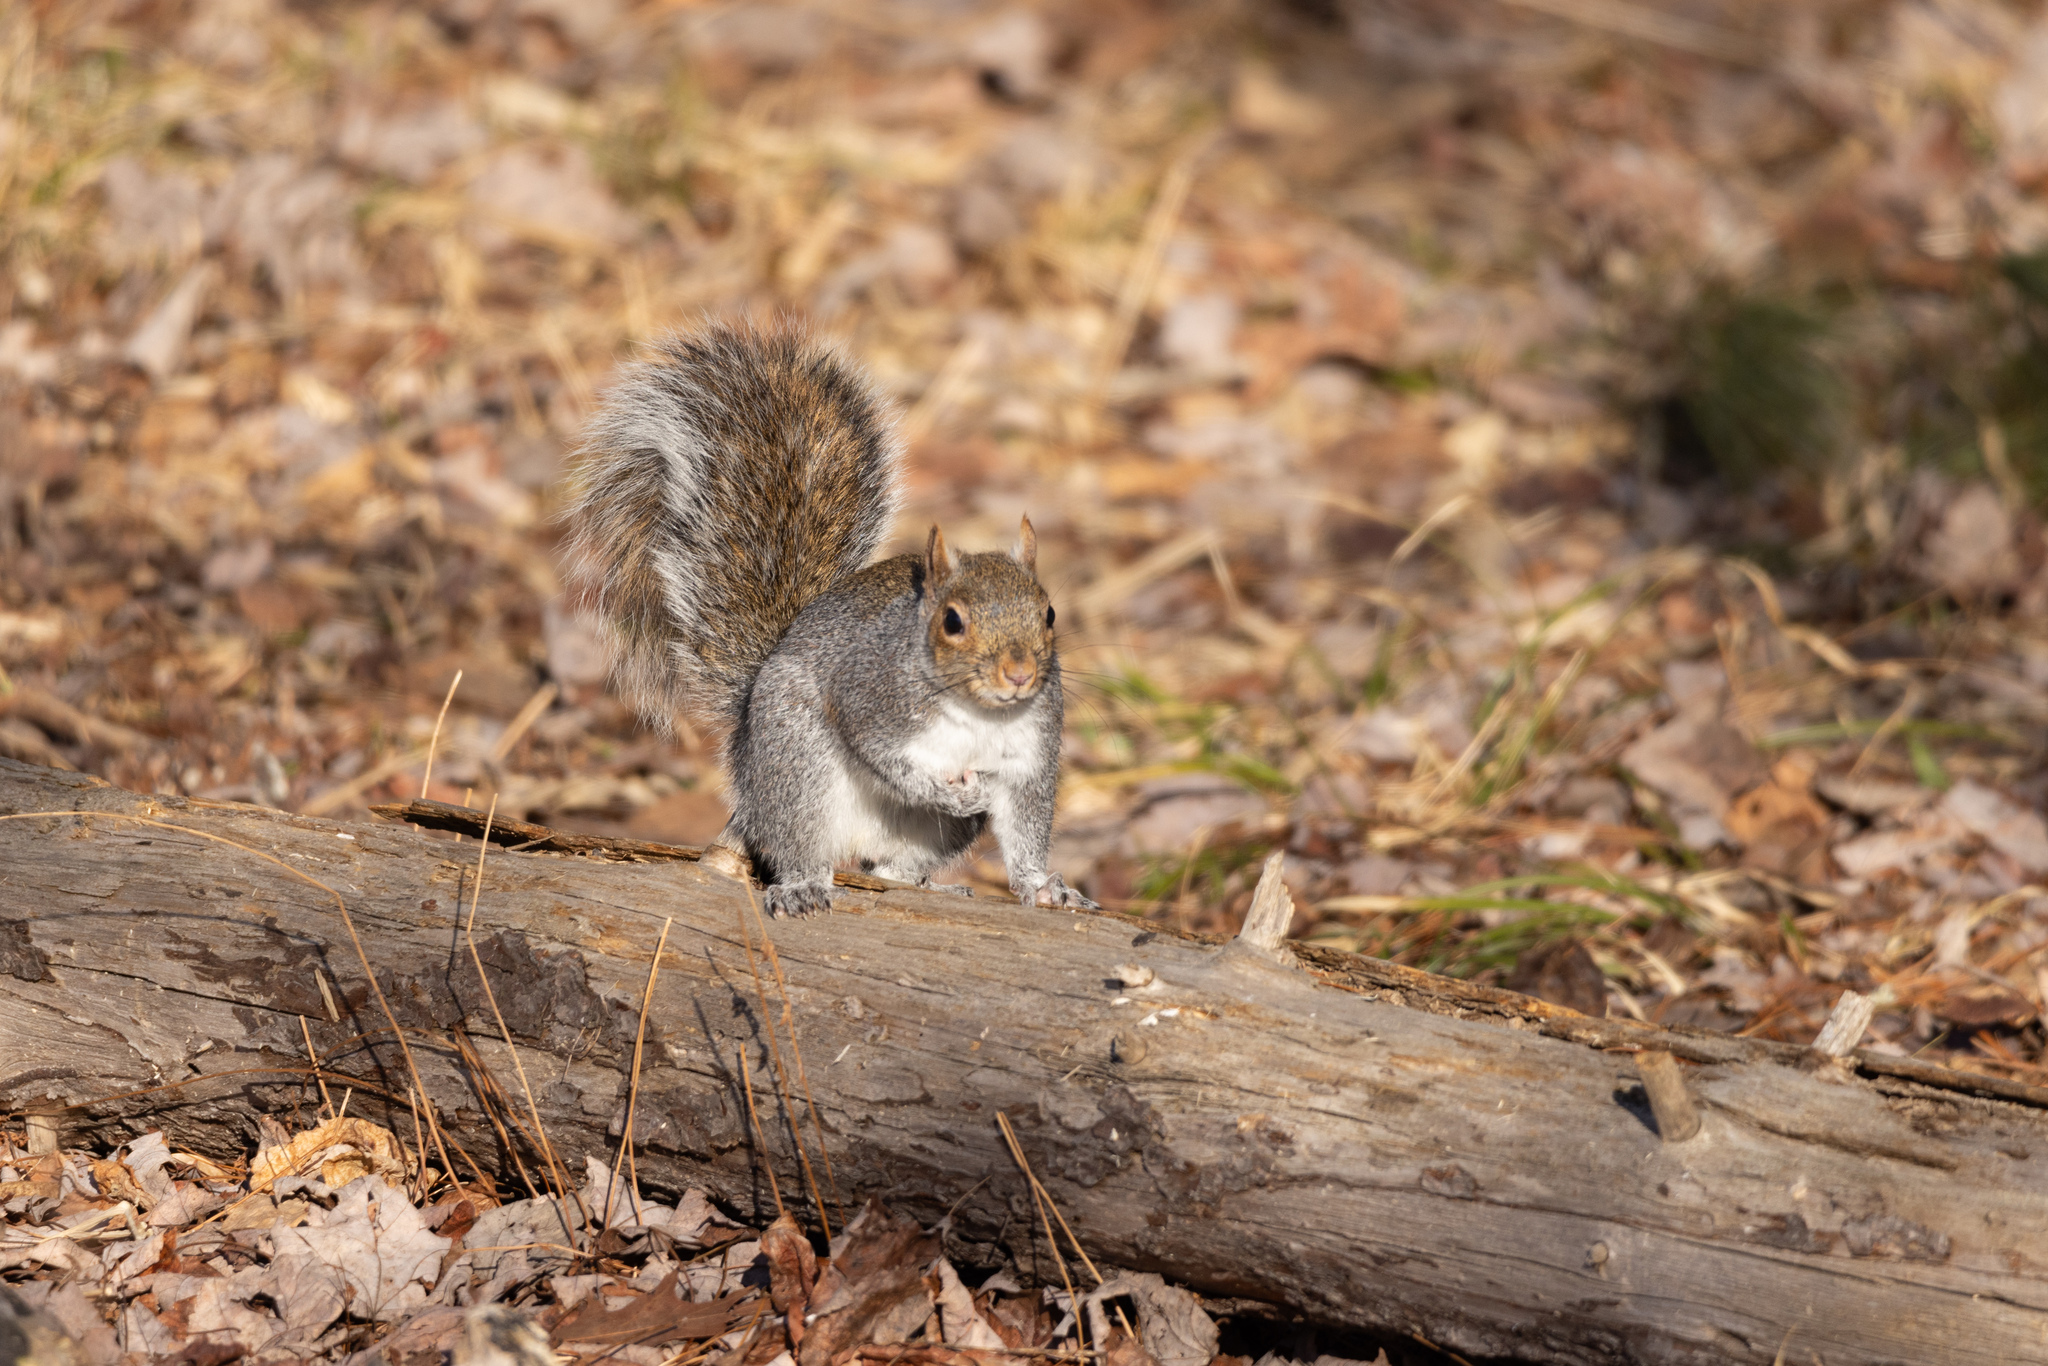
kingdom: Animalia
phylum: Chordata
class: Mammalia
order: Rodentia
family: Sciuridae
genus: Sciurus
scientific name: Sciurus carolinensis
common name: Eastern gray squirrel
